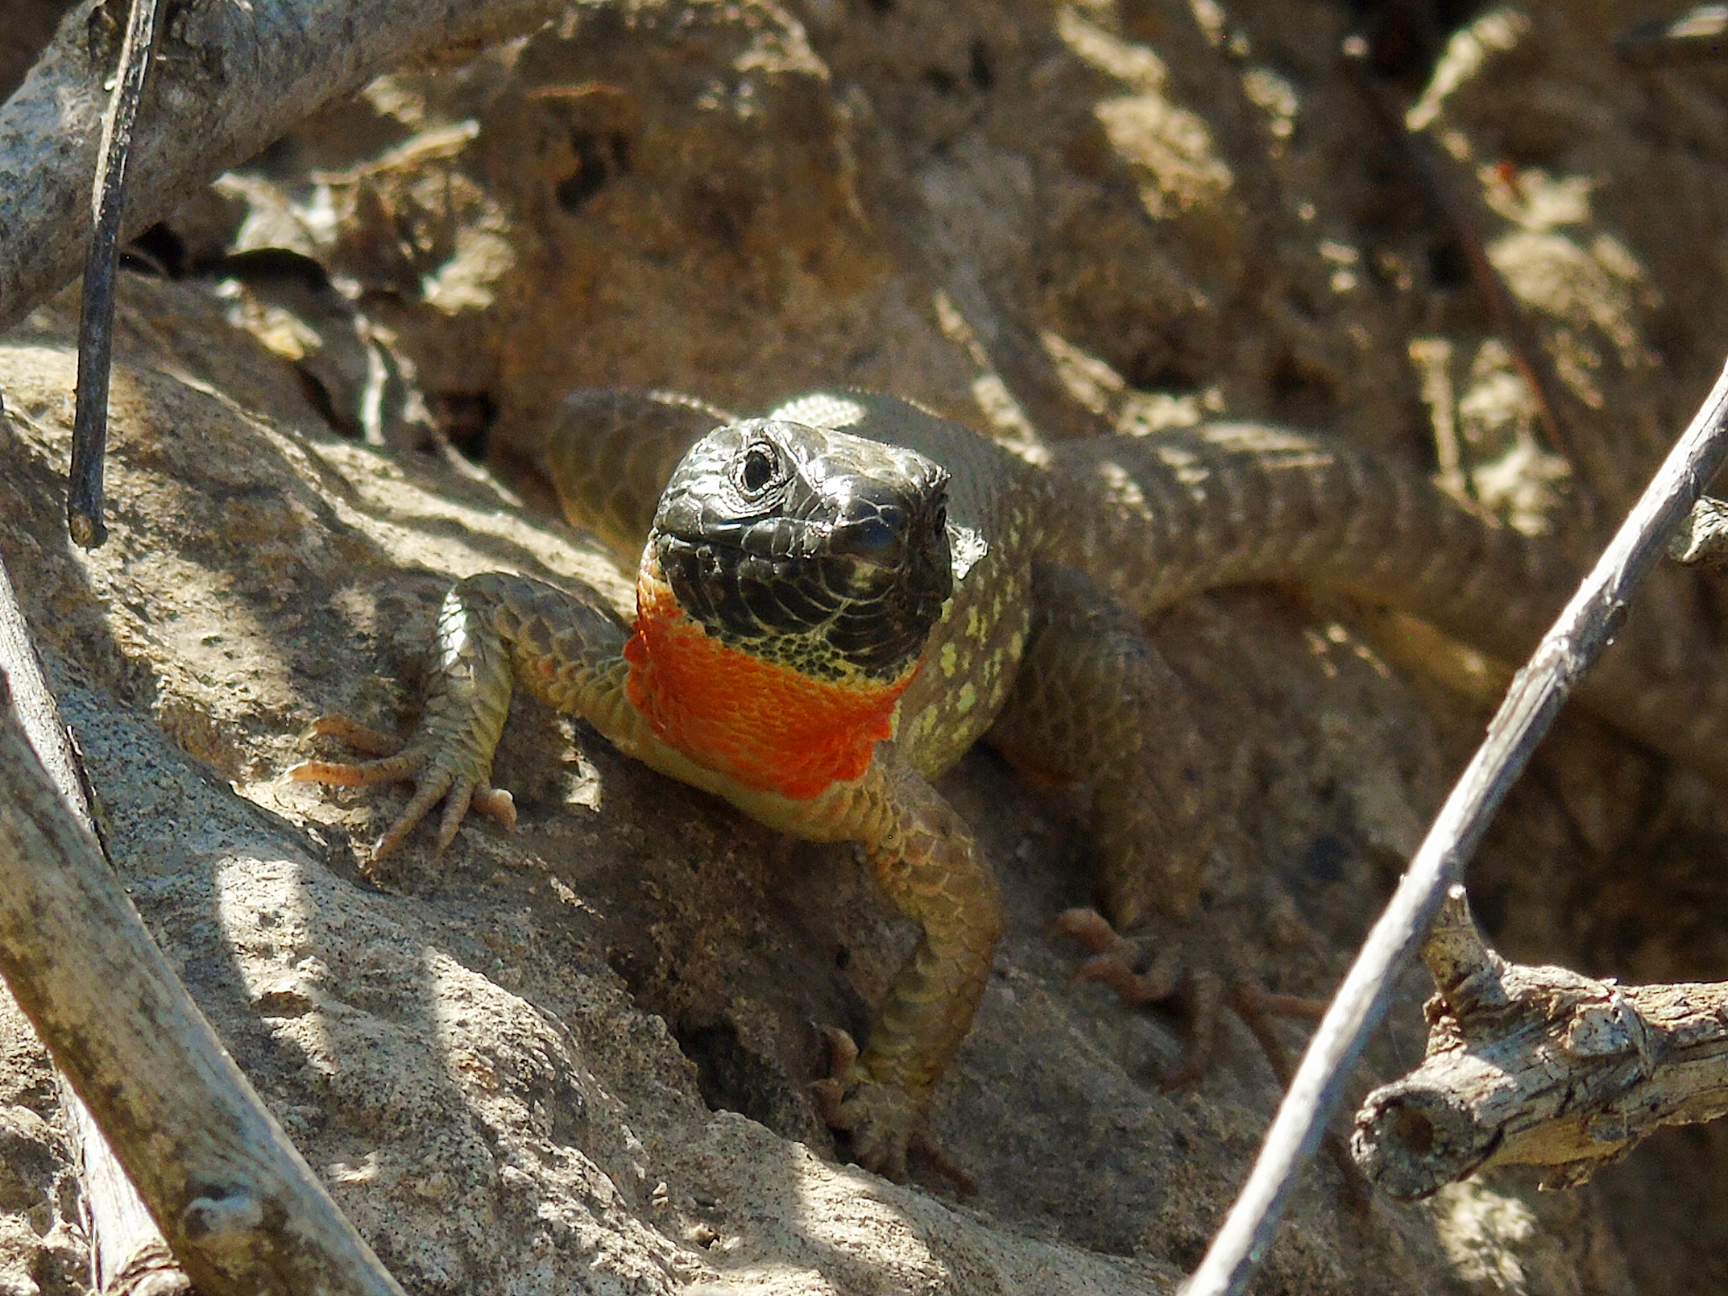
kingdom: Animalia
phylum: Chordata
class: Squamata
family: Lacertidae
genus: Timon
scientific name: Timon kurdistanicus
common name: Kurdistan lizard
